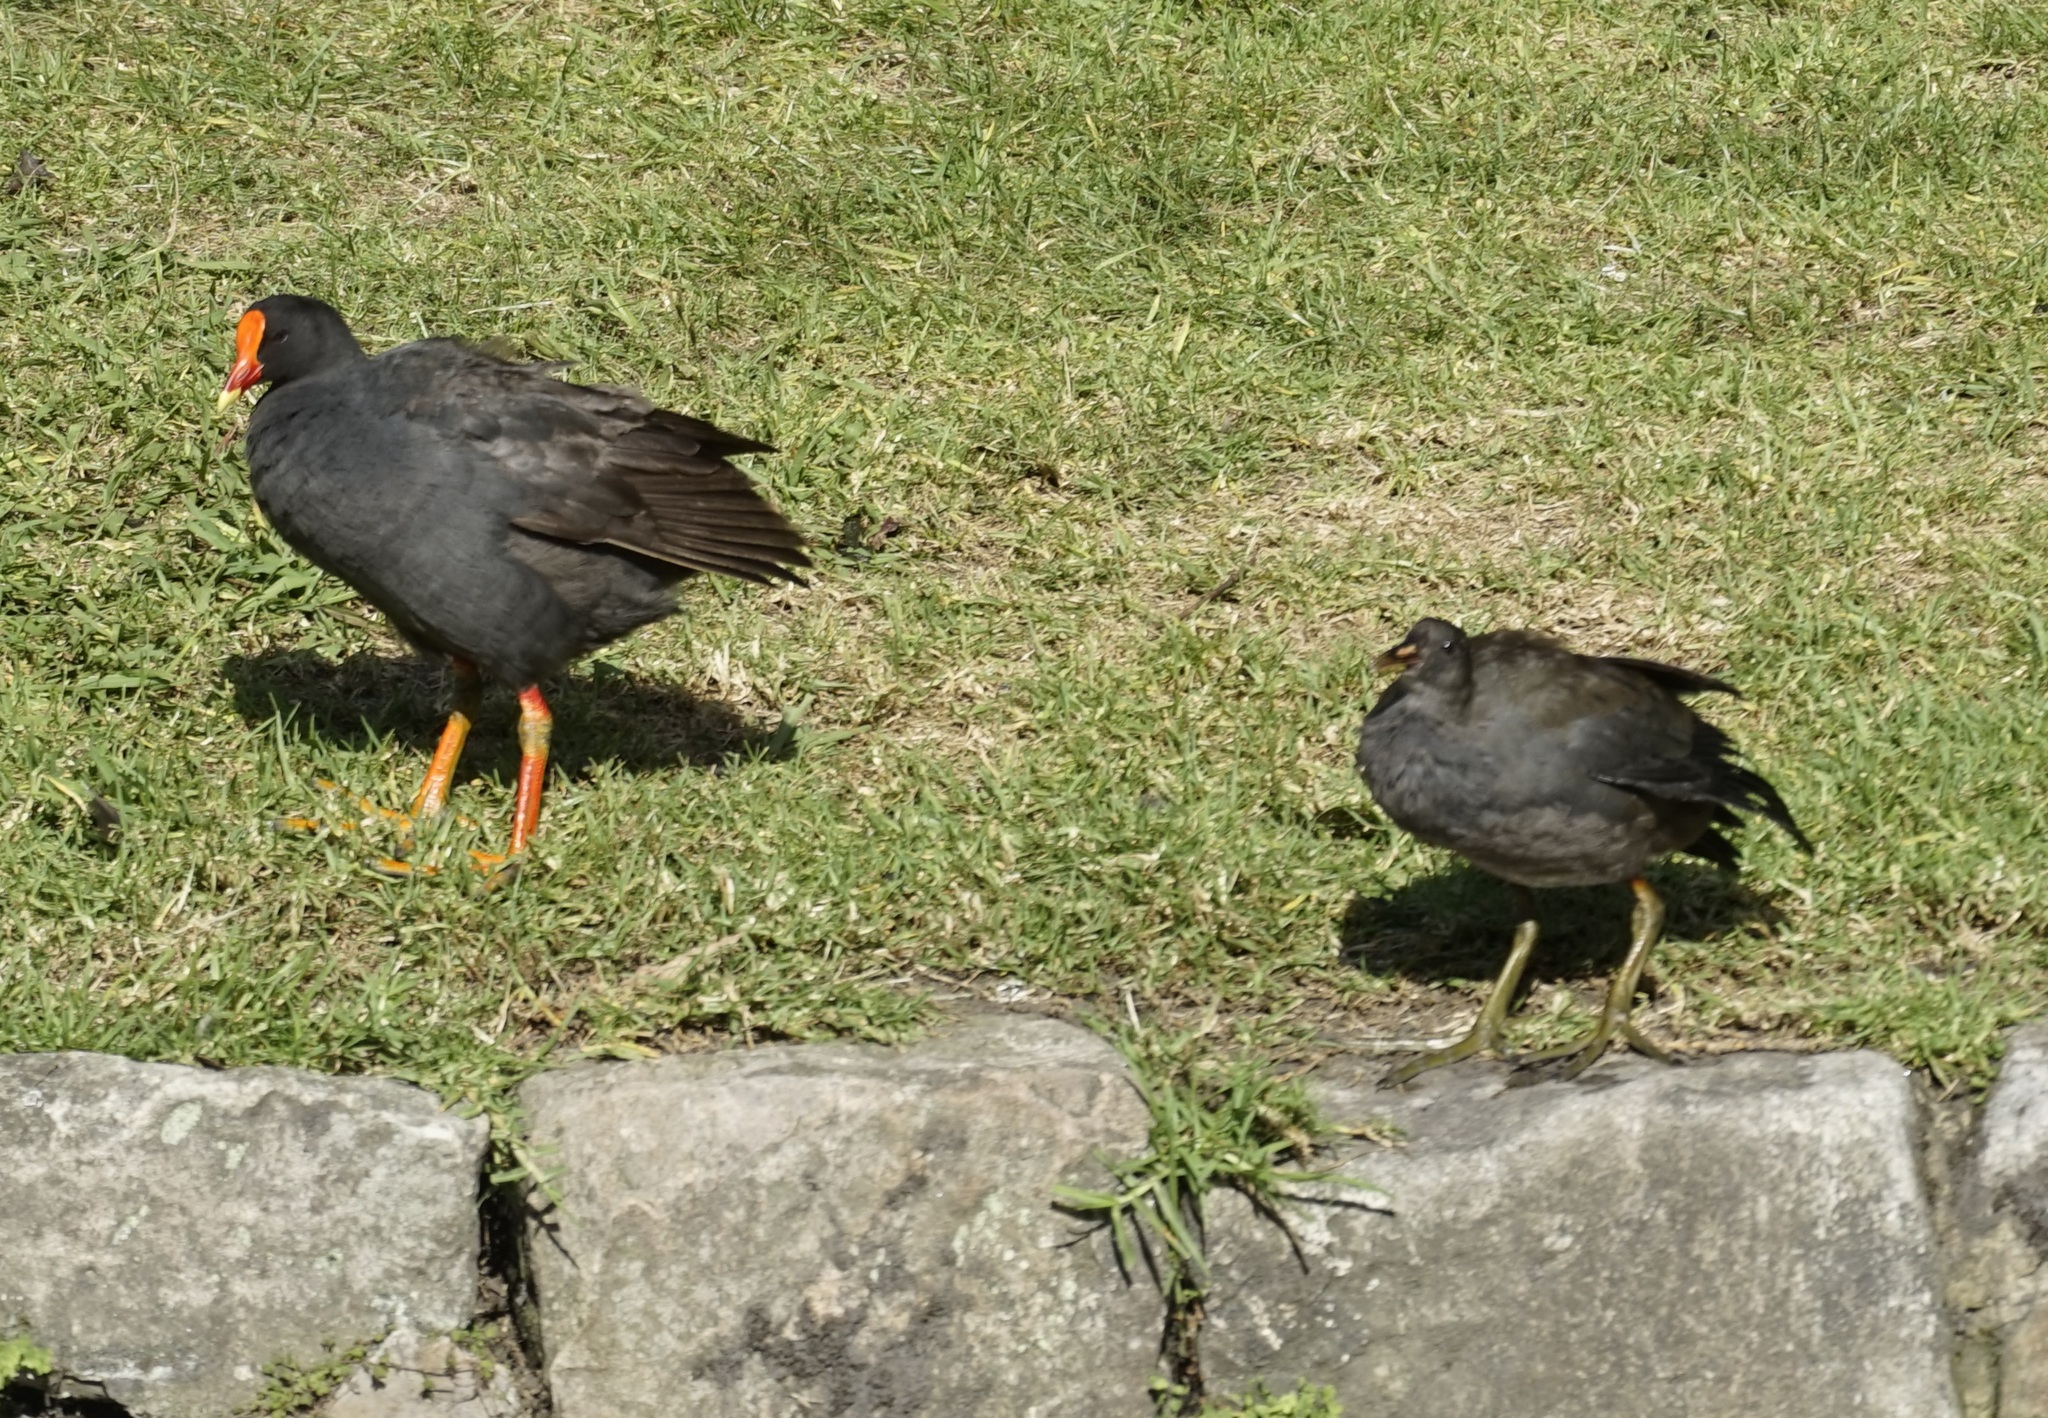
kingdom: Animalia
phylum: Chordata
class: Aves
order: Gruiformes
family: Rallidae
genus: Gallinula
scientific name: Gallinula tenebrosa
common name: Dusky moorhen
